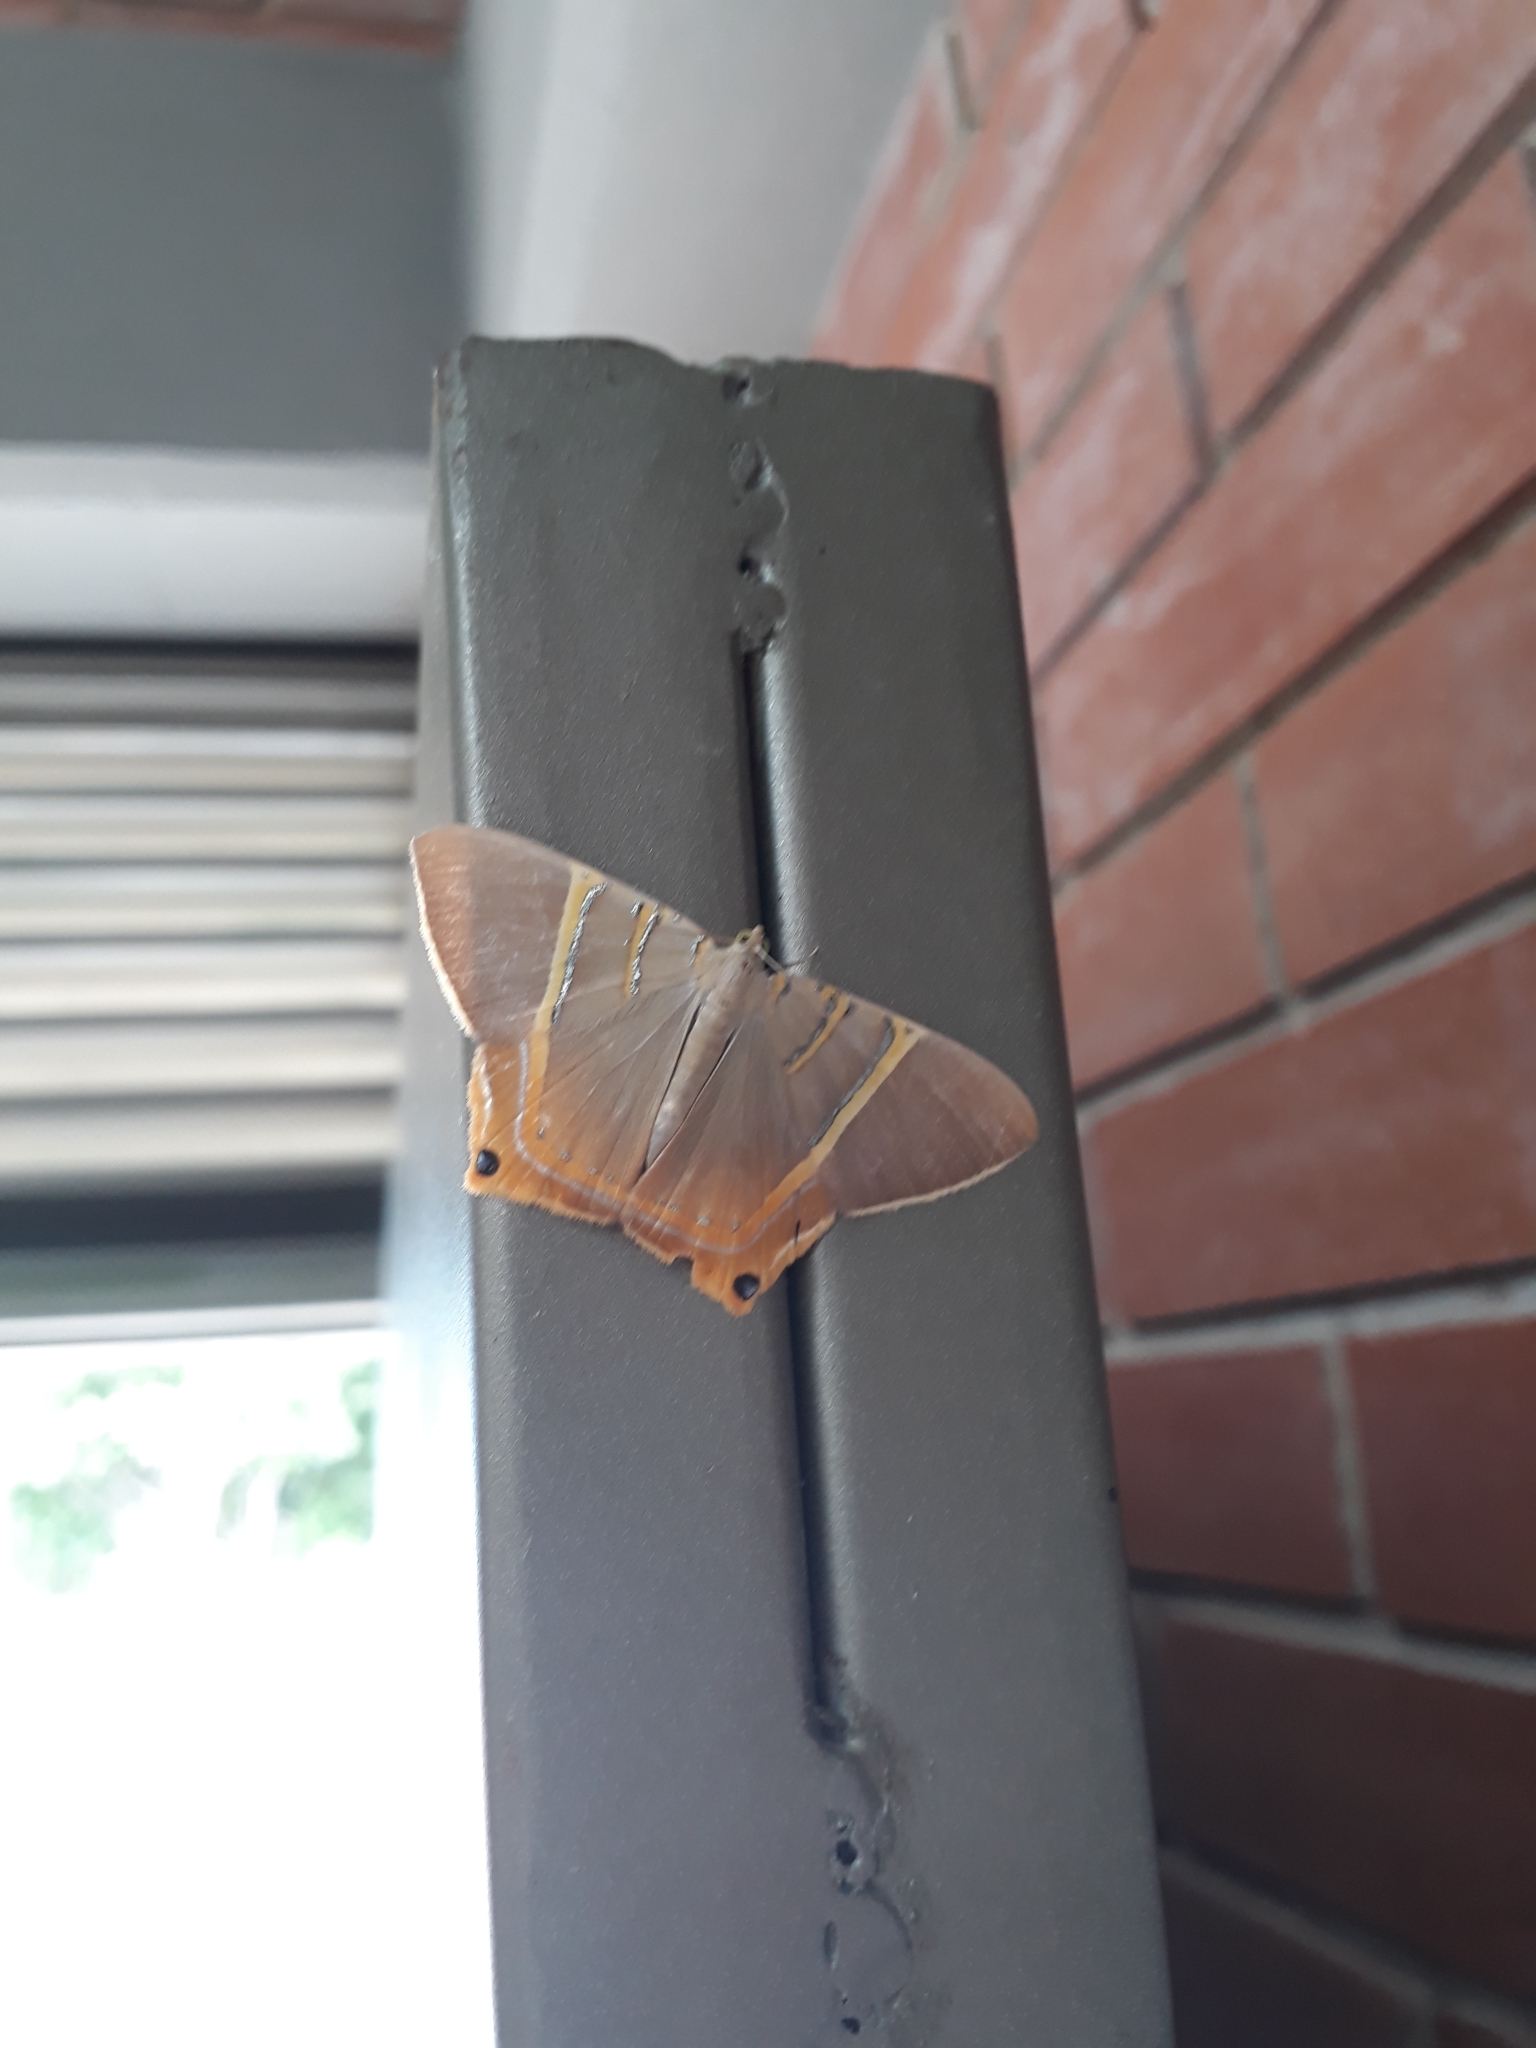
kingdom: Animalia
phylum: Arthropoda
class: Insecta
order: Lepidoptera
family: Geometridae
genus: Phrygionis
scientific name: Phrygionis polita
